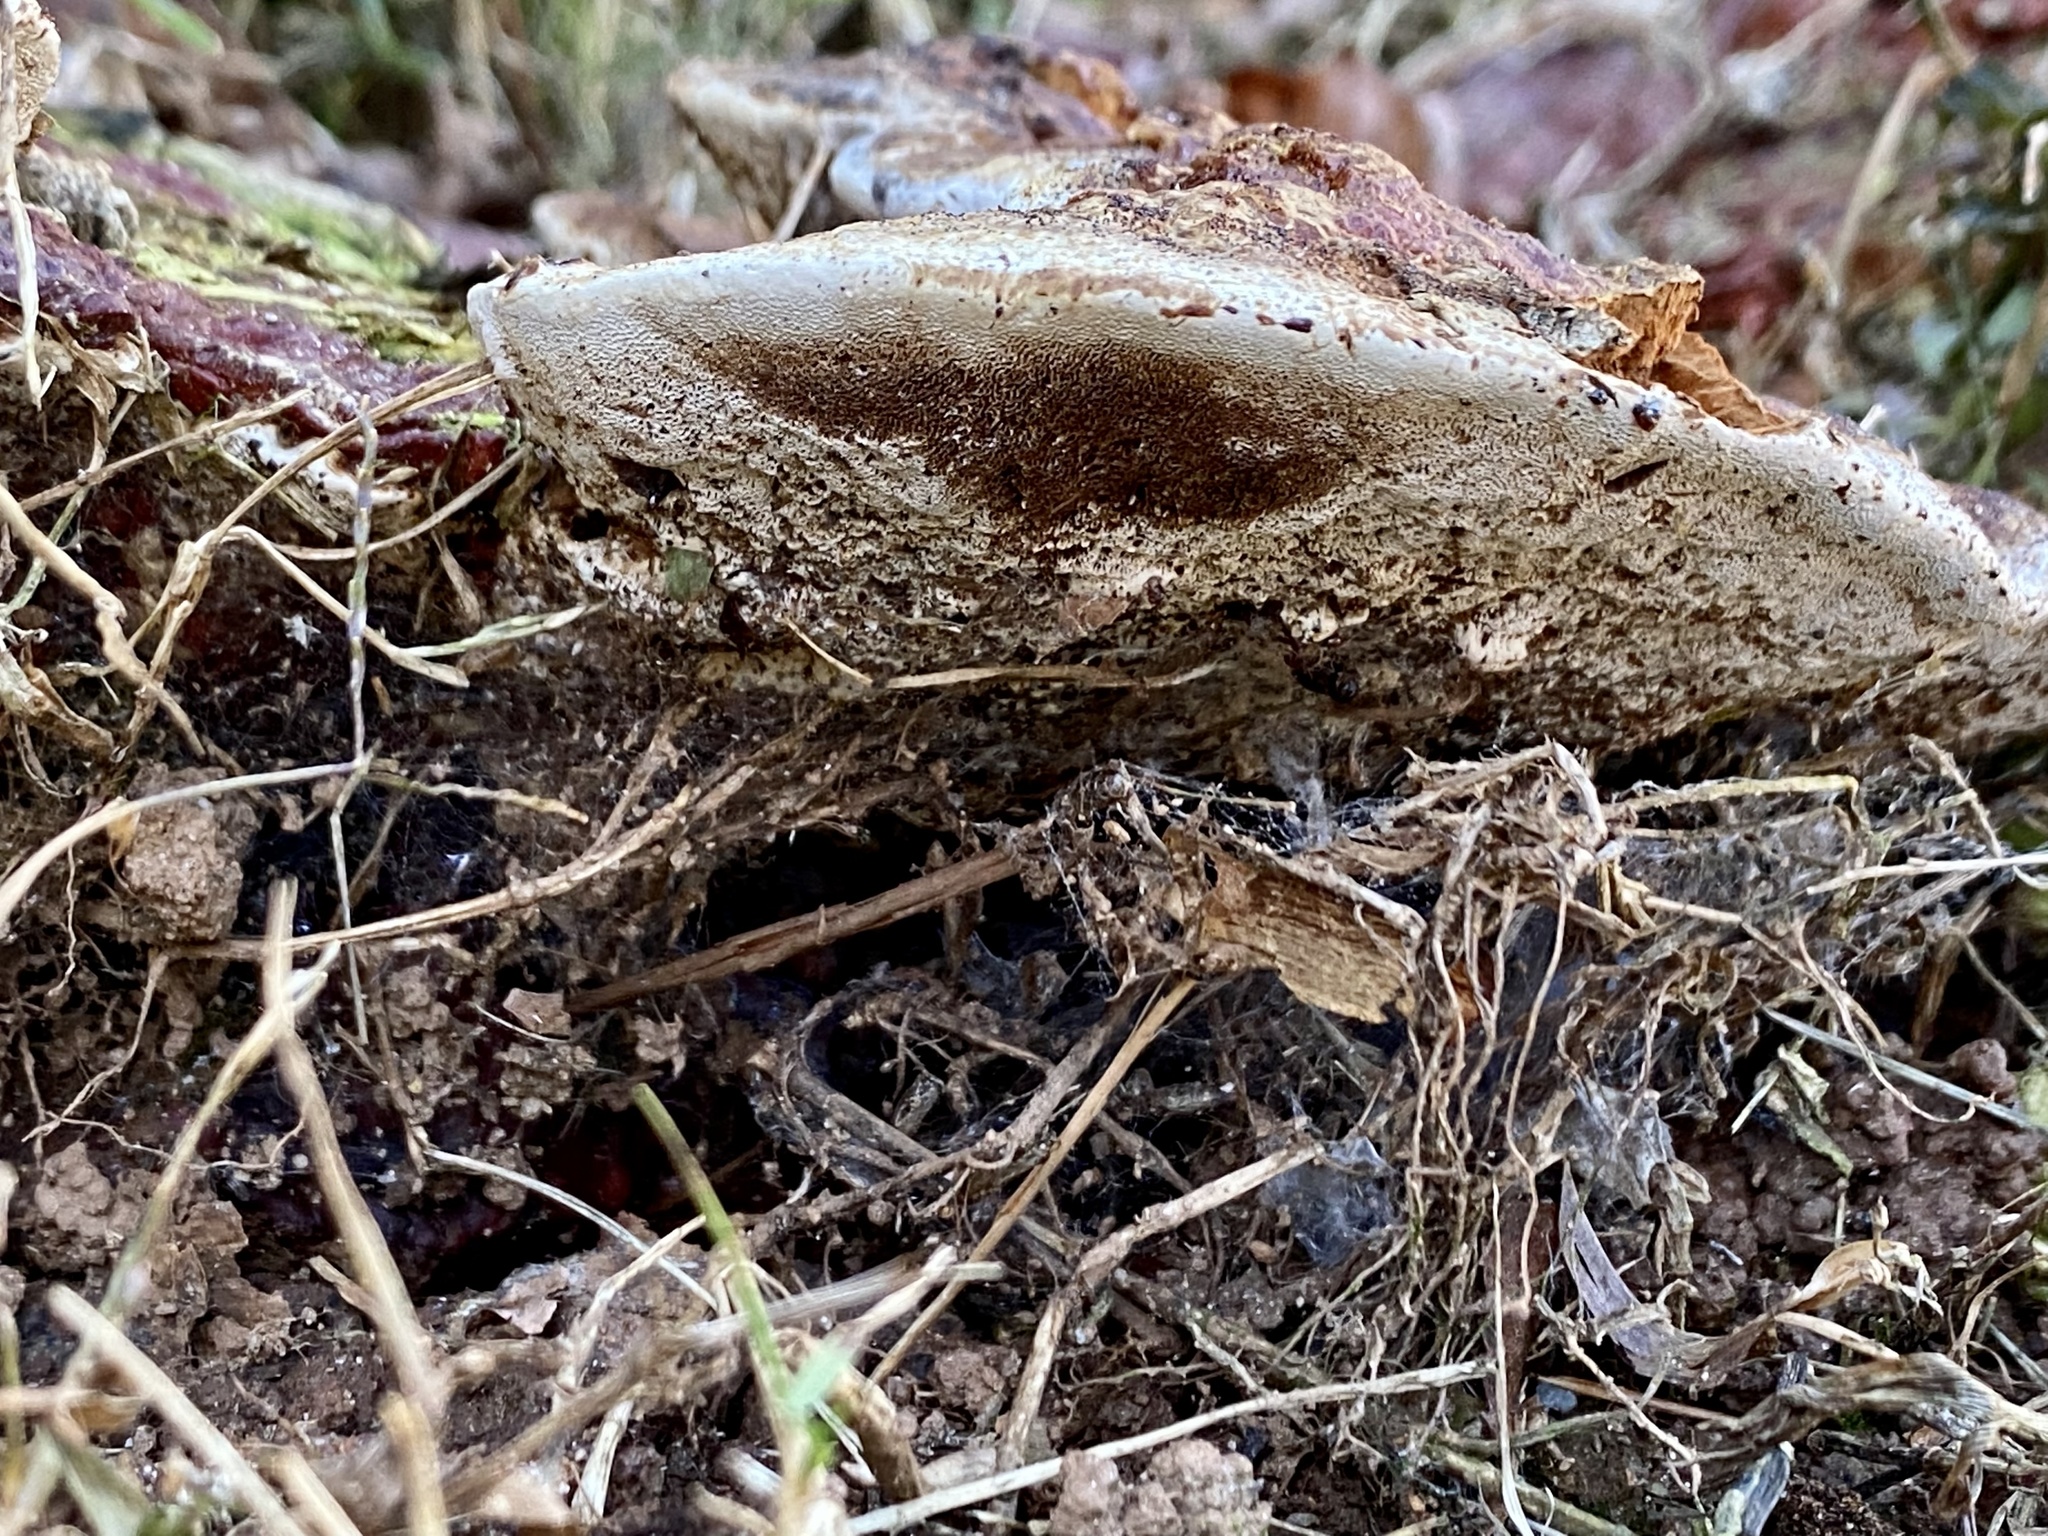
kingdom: Fungi
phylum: Basidiomycota
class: Agaricomycetes
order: Polyporales
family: Polyporaceae
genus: Ganoderma
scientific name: Ganoderma resinaceum
